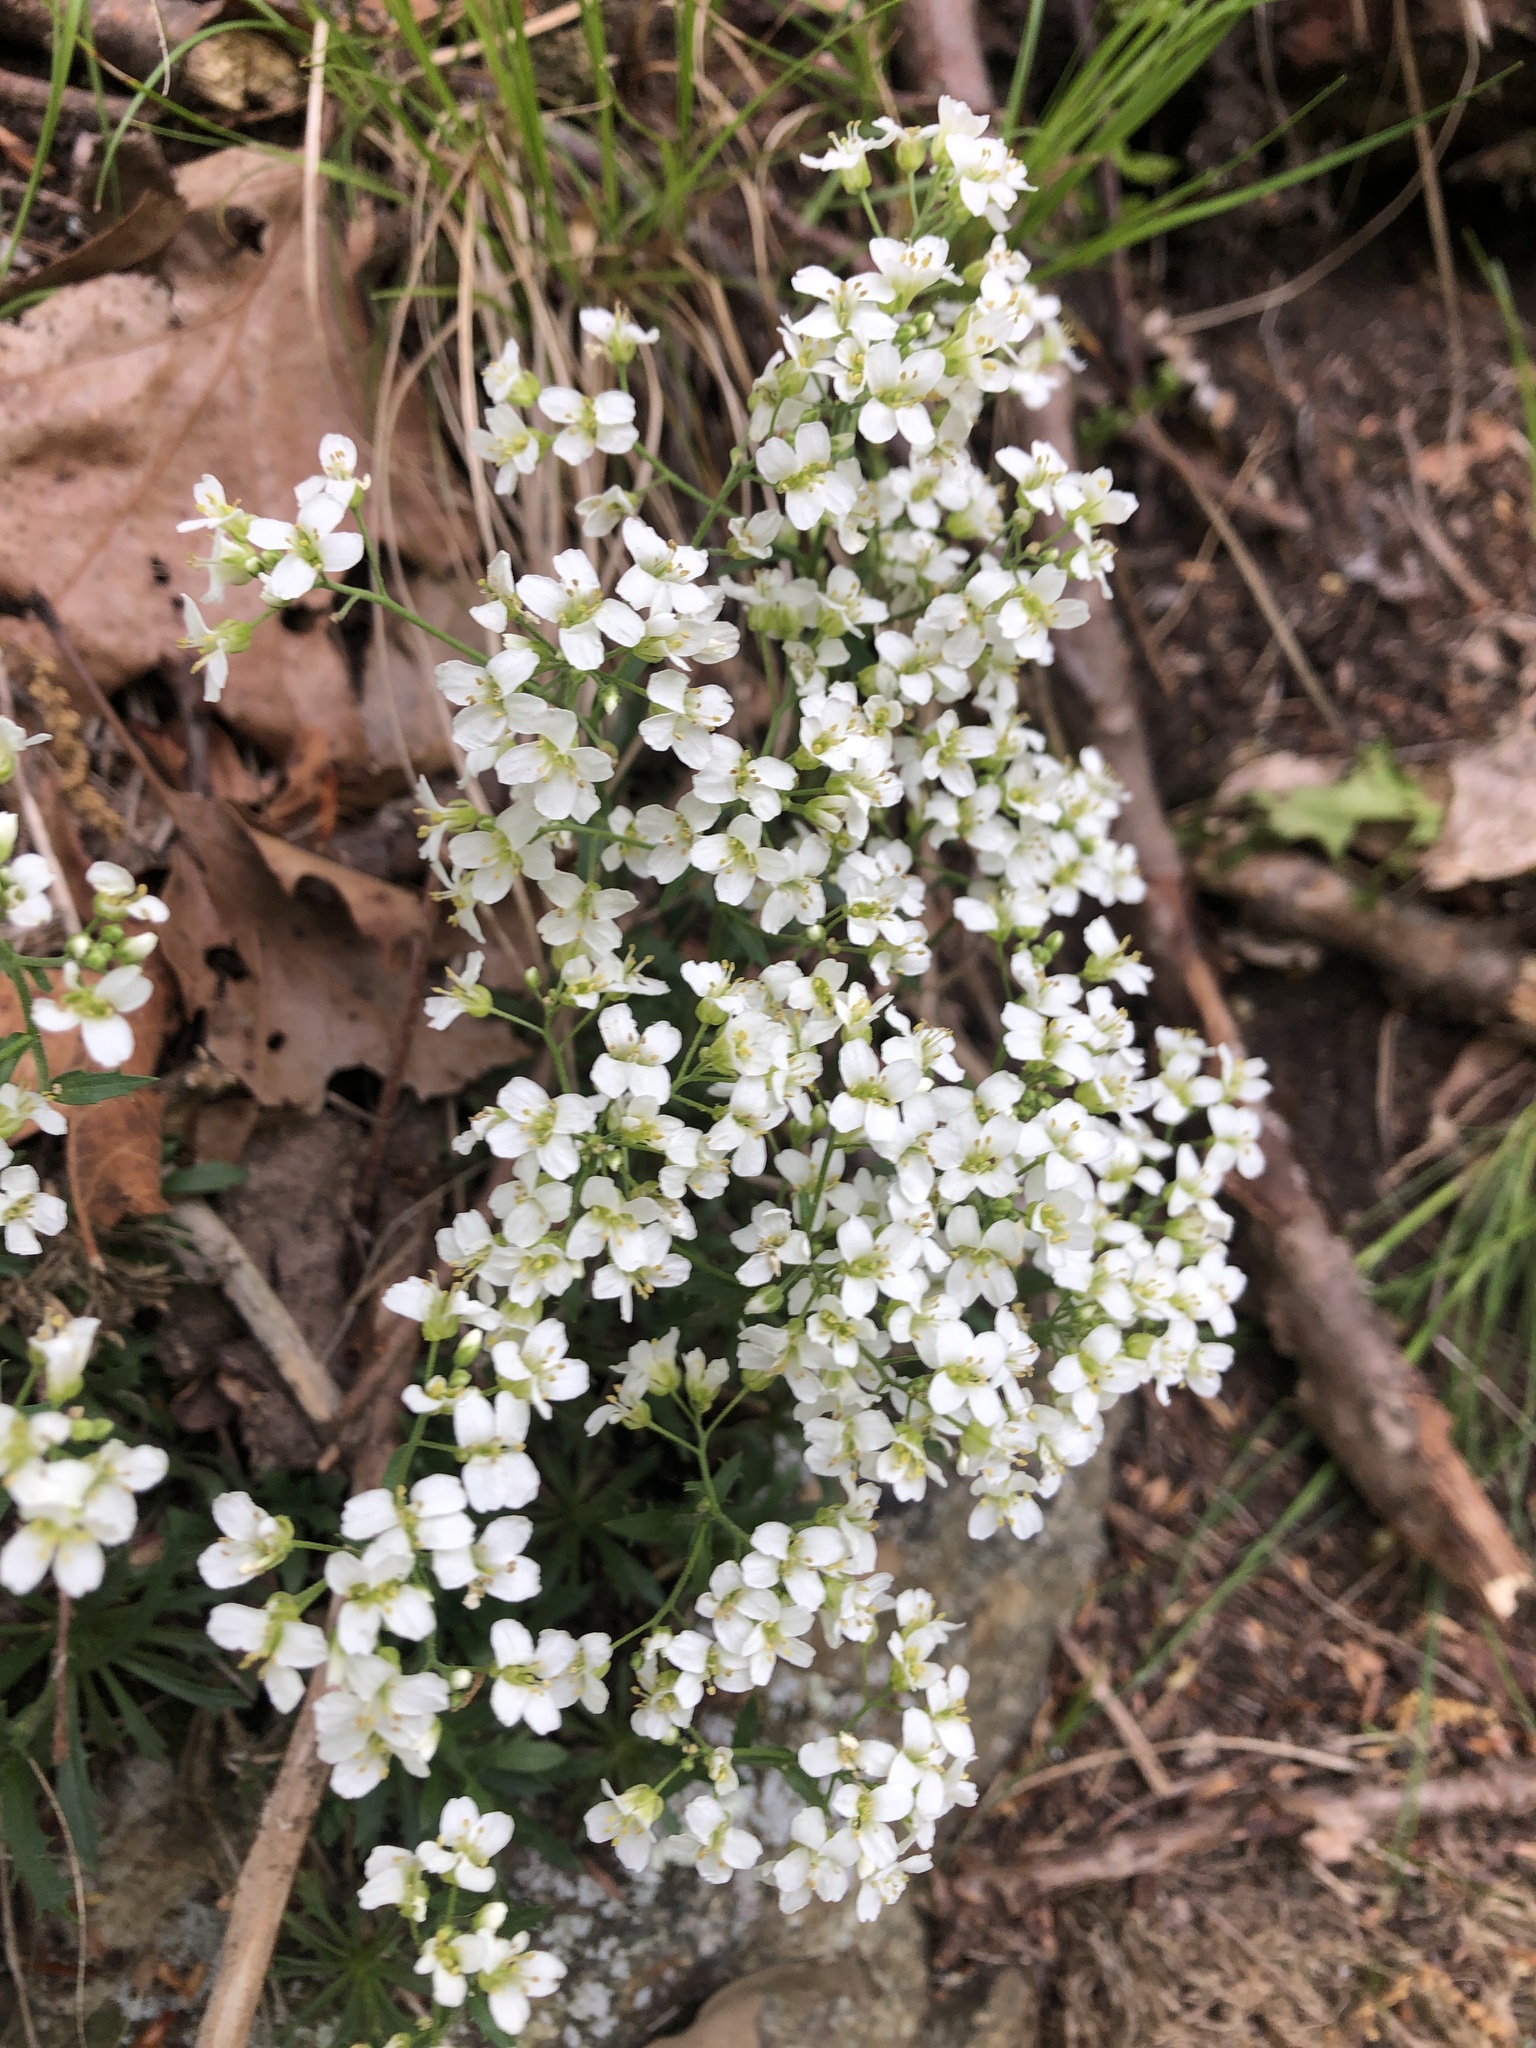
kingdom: Plantae
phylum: Tracheophyta
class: Magnoliopsida
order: Brassicales
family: Brassicaceae
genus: Draba
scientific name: Draba ramosissima
